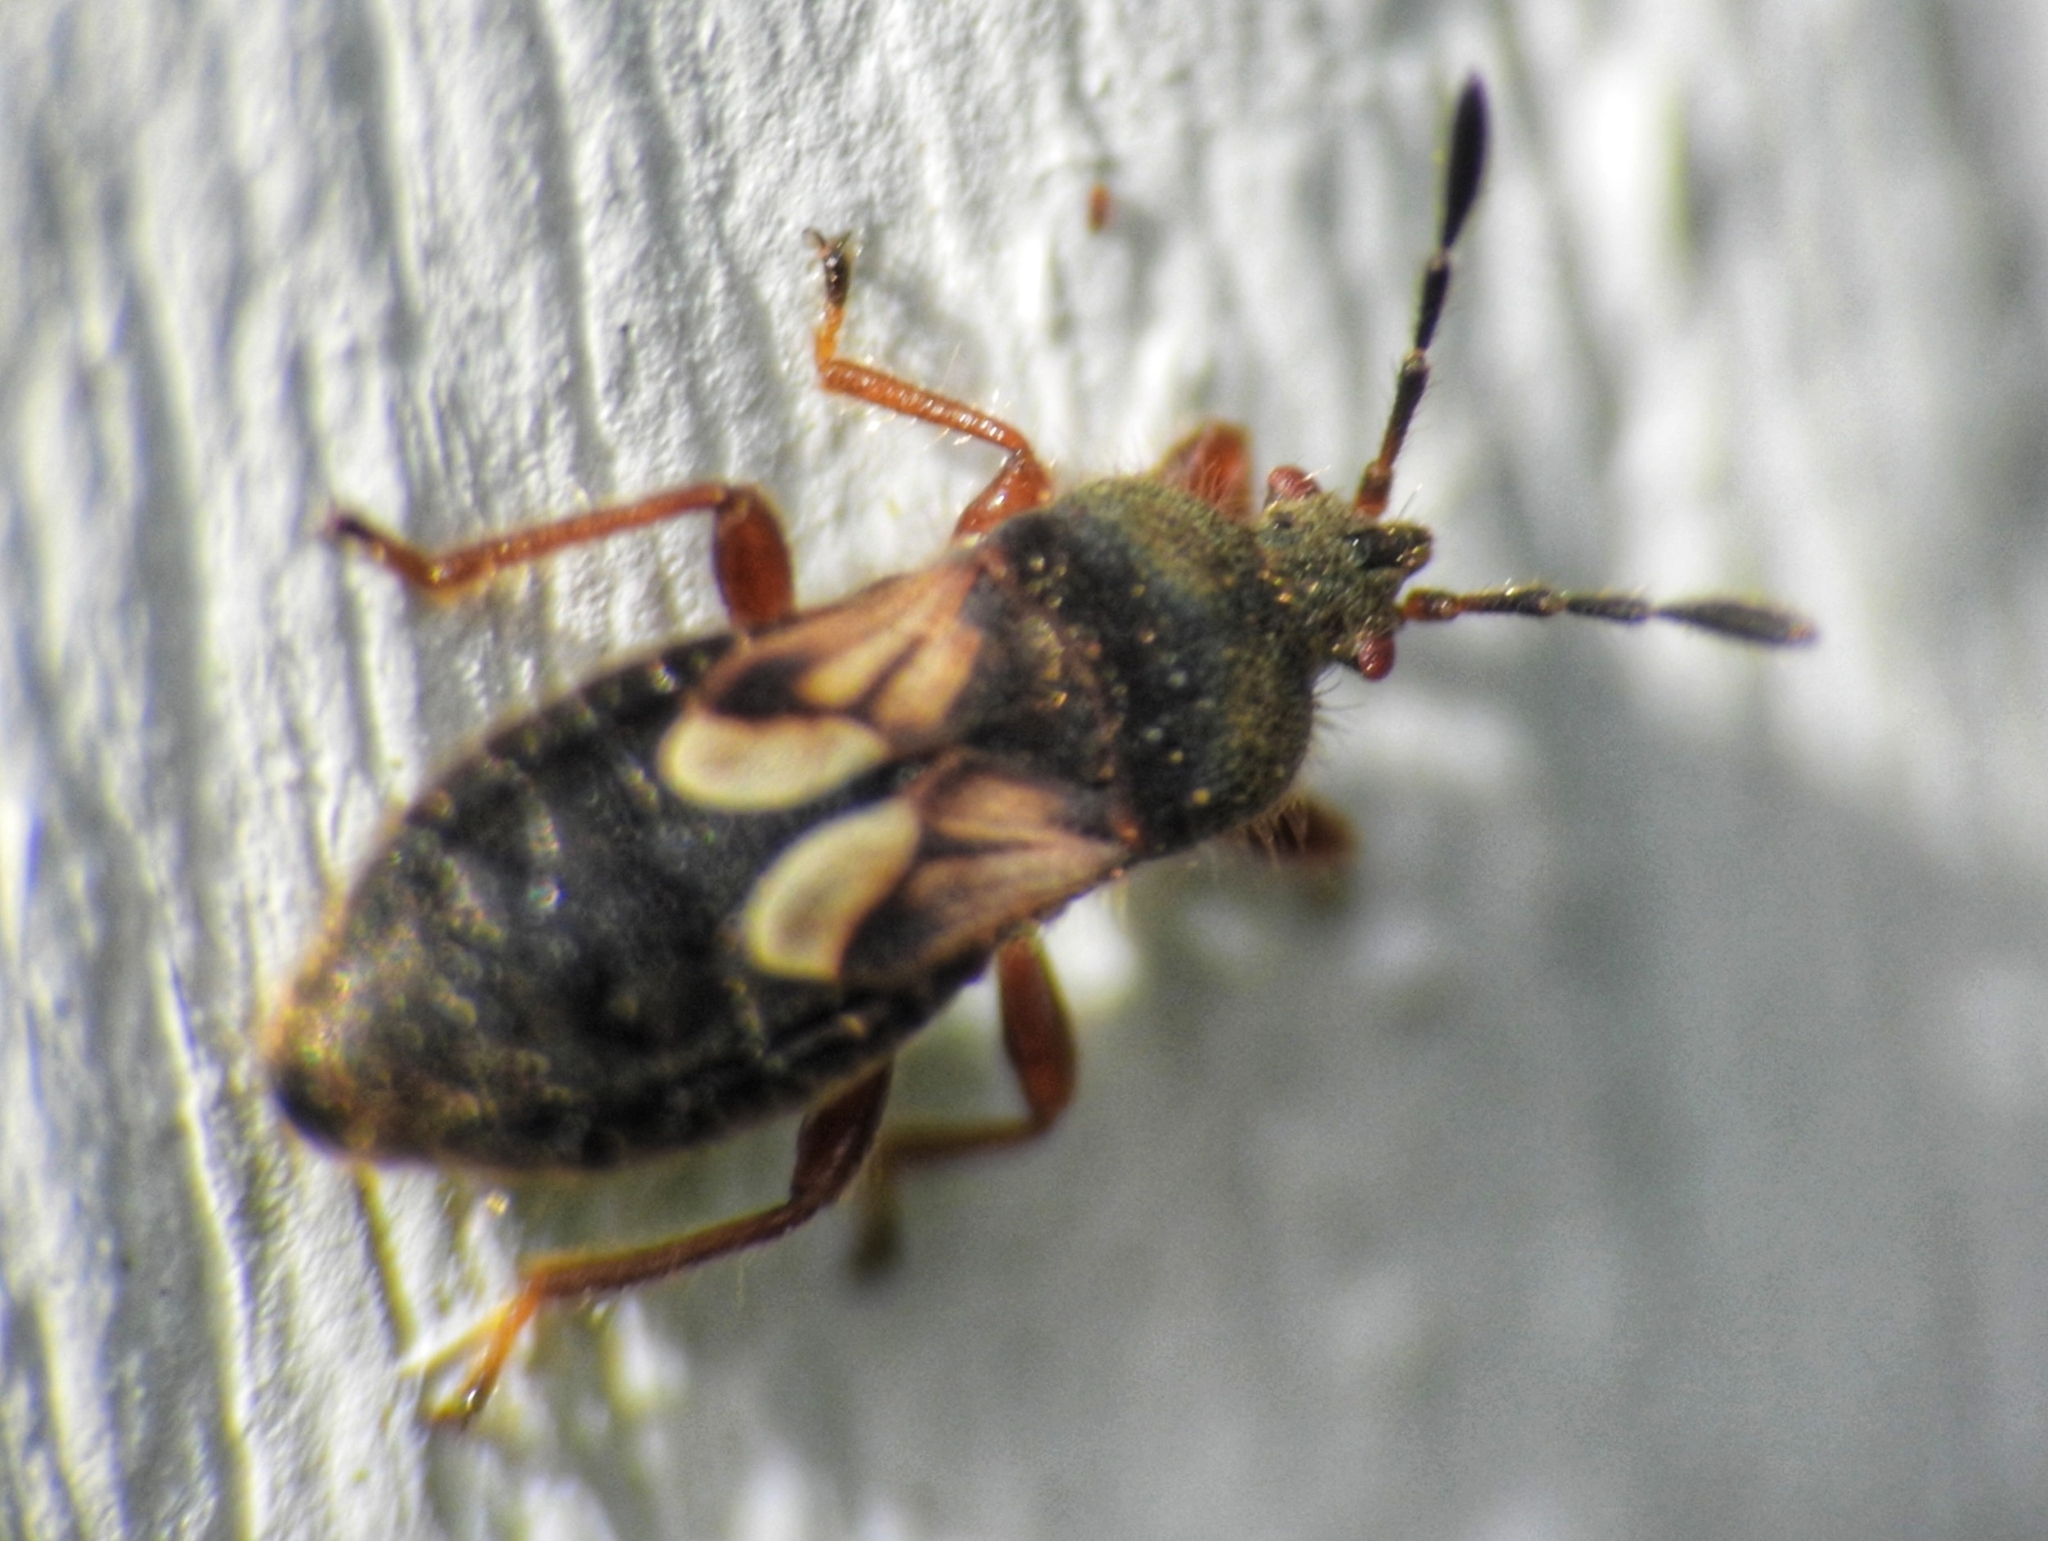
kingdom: Animalia
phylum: Arthropoda
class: Insecta
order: Hemiptera
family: Blissidae
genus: Blissus
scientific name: Blissus leucopterus
